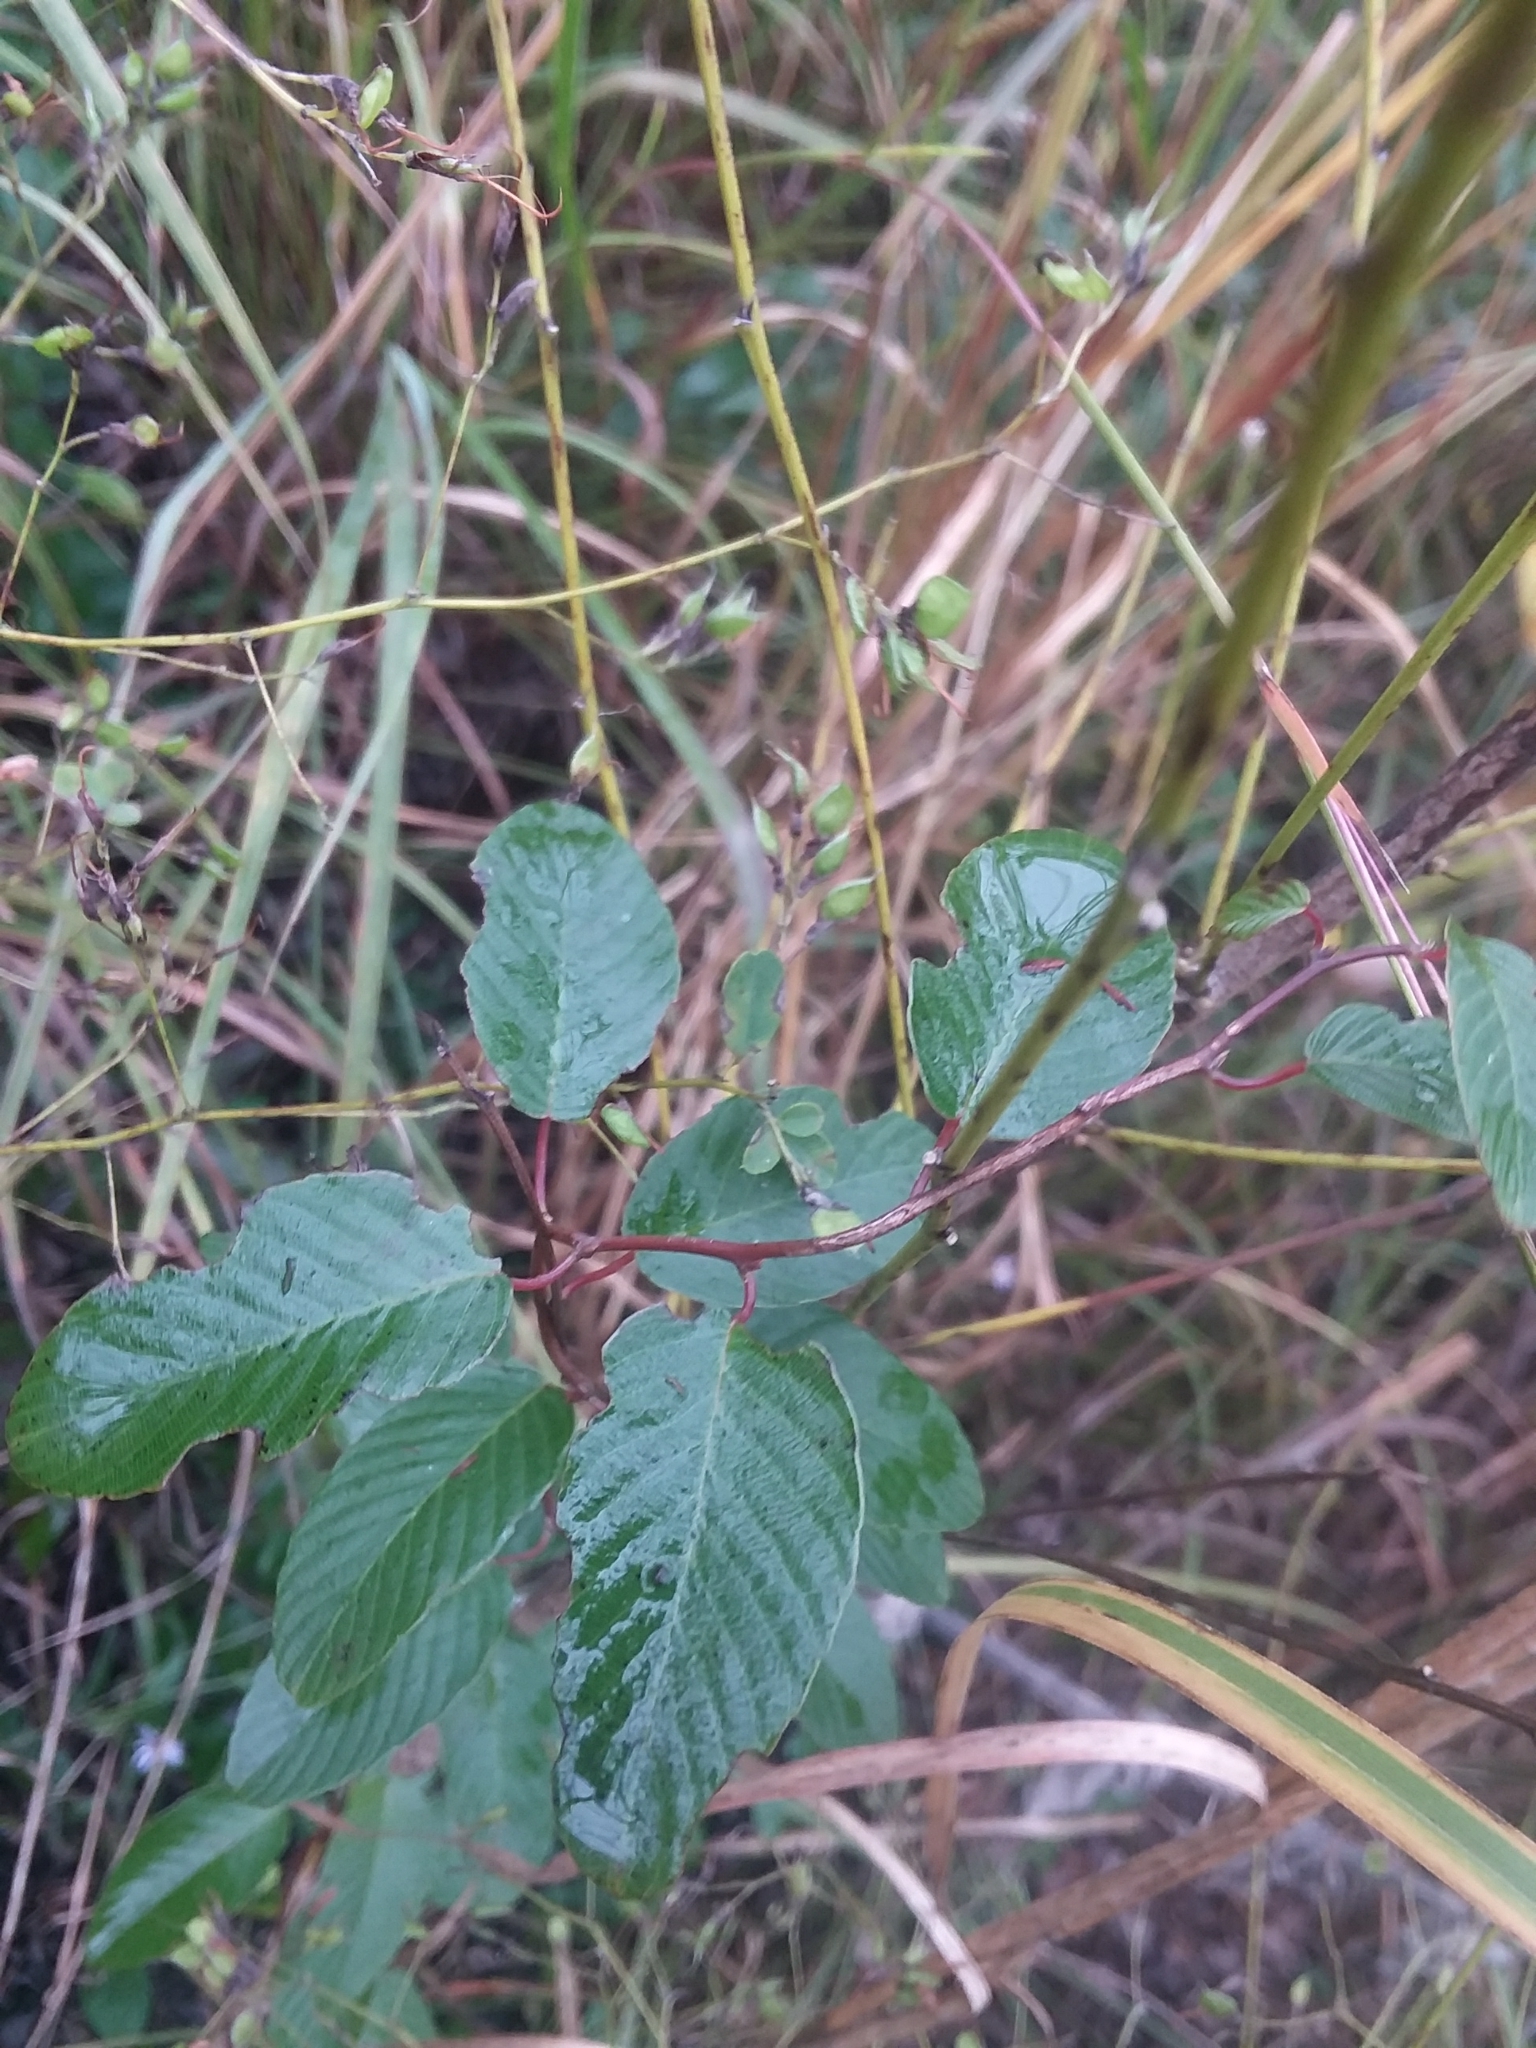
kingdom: Plantae
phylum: Tracheophyta
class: Magnoliopsida
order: Rosales
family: Rhamnaceae
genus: Berchemia
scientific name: Berchemia scandens
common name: Supplejack
